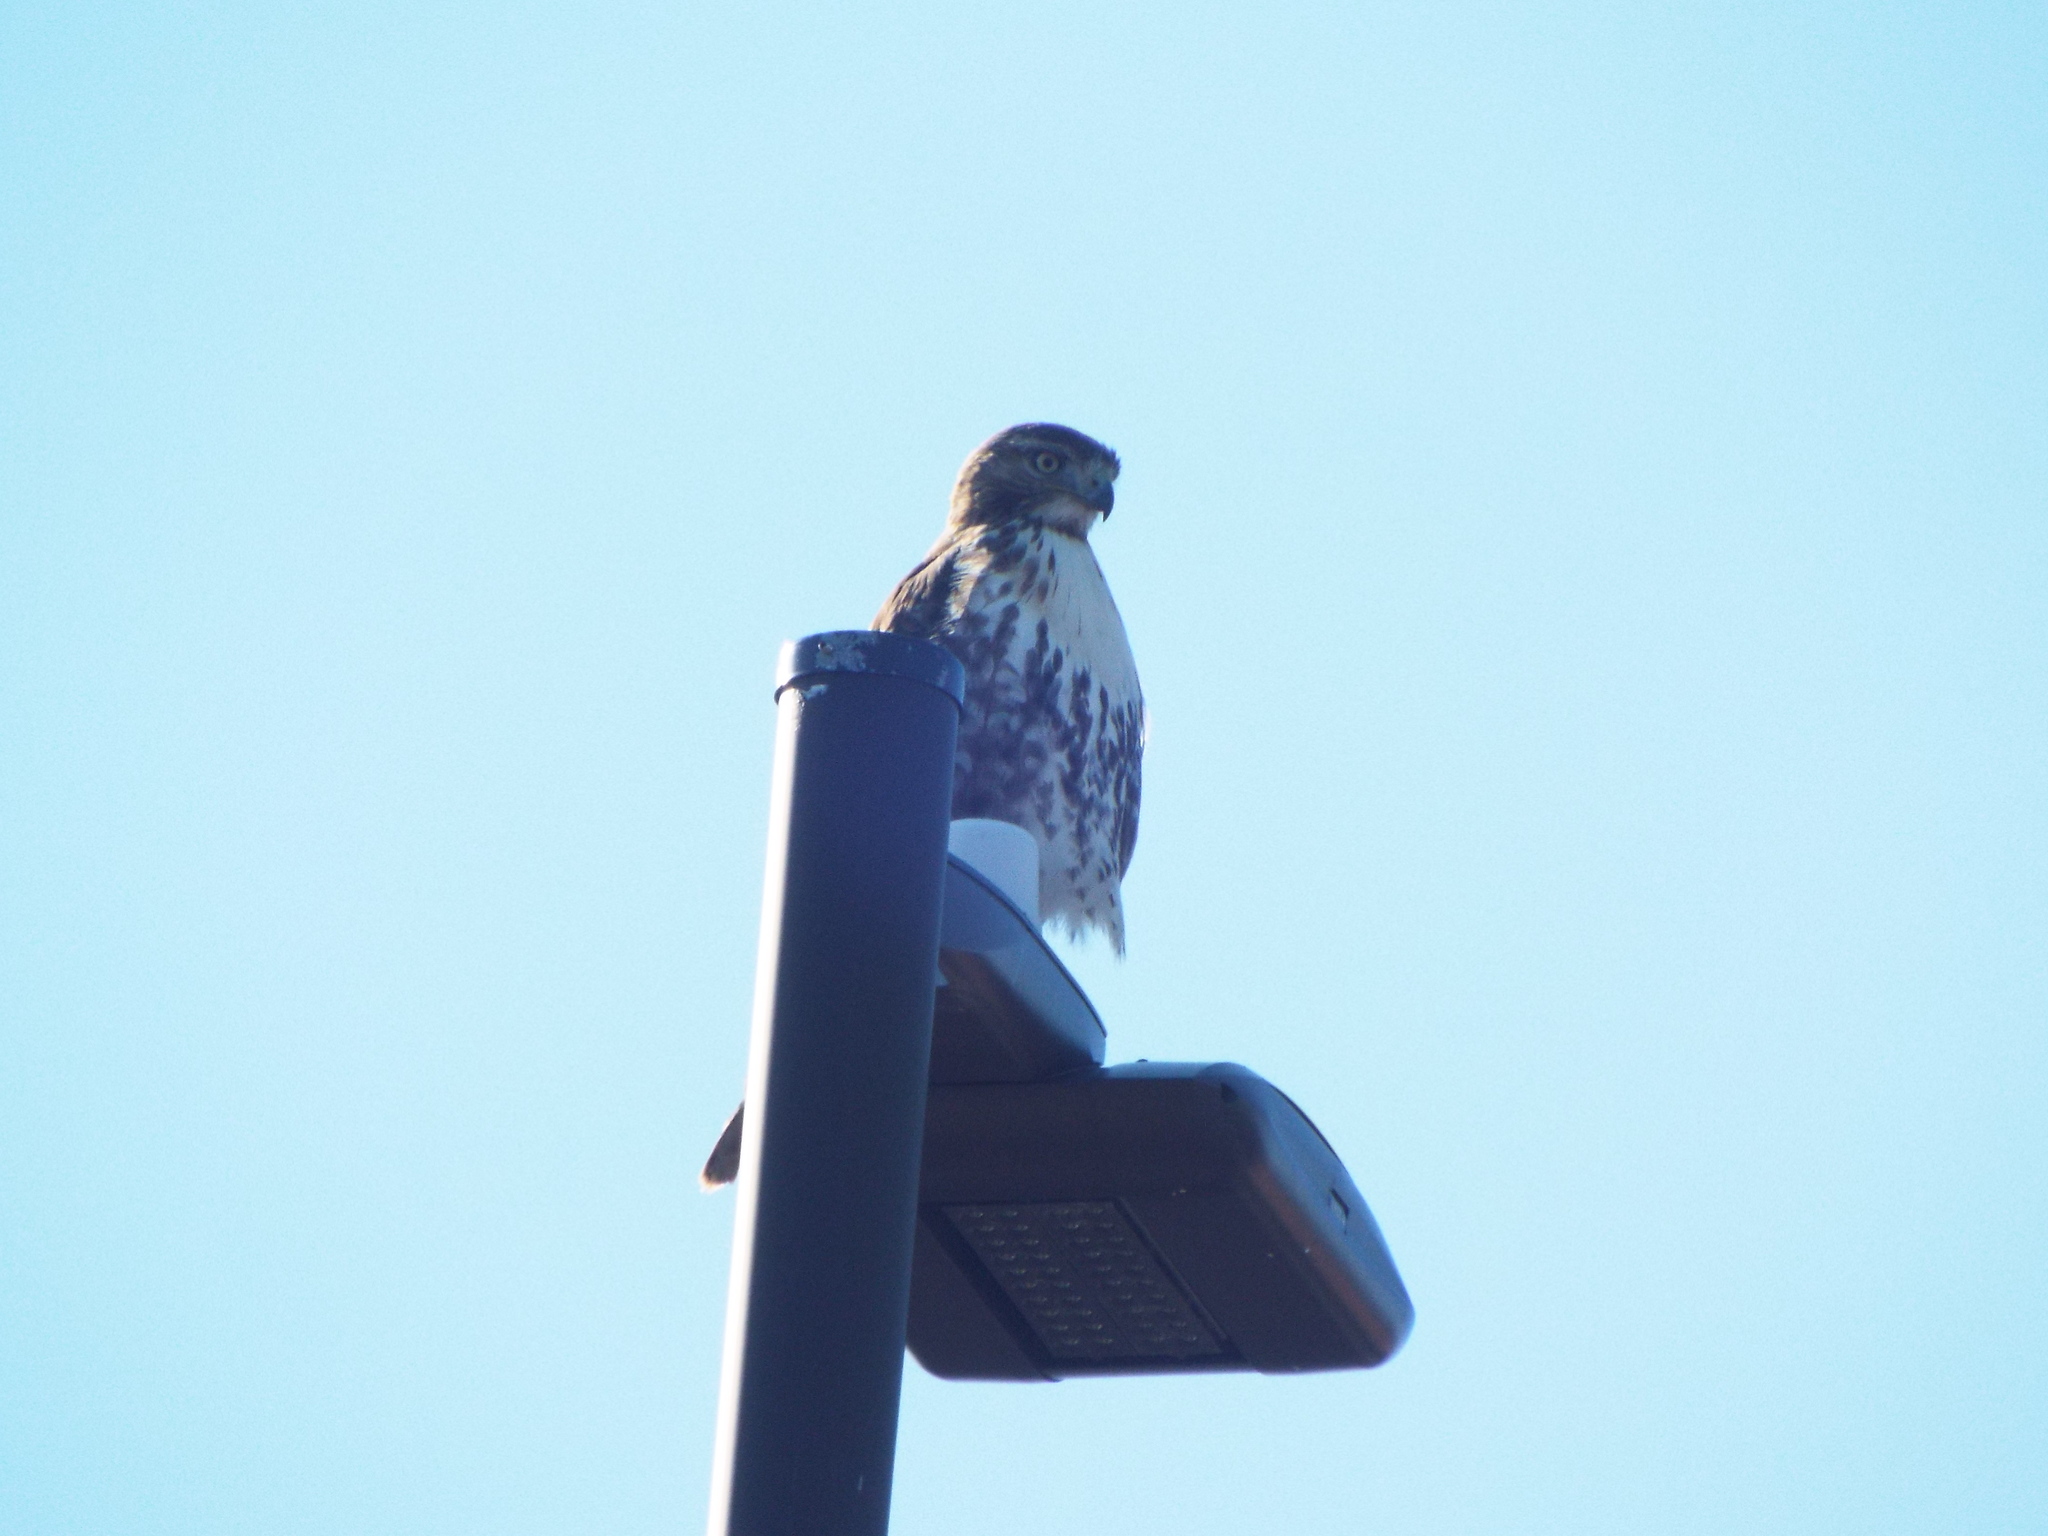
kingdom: Animalia
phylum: Chordata
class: Aves
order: Accipitriformes
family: Accipitridae
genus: Buteo
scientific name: Buteo jamaicensis
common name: Red-tailed hawk
